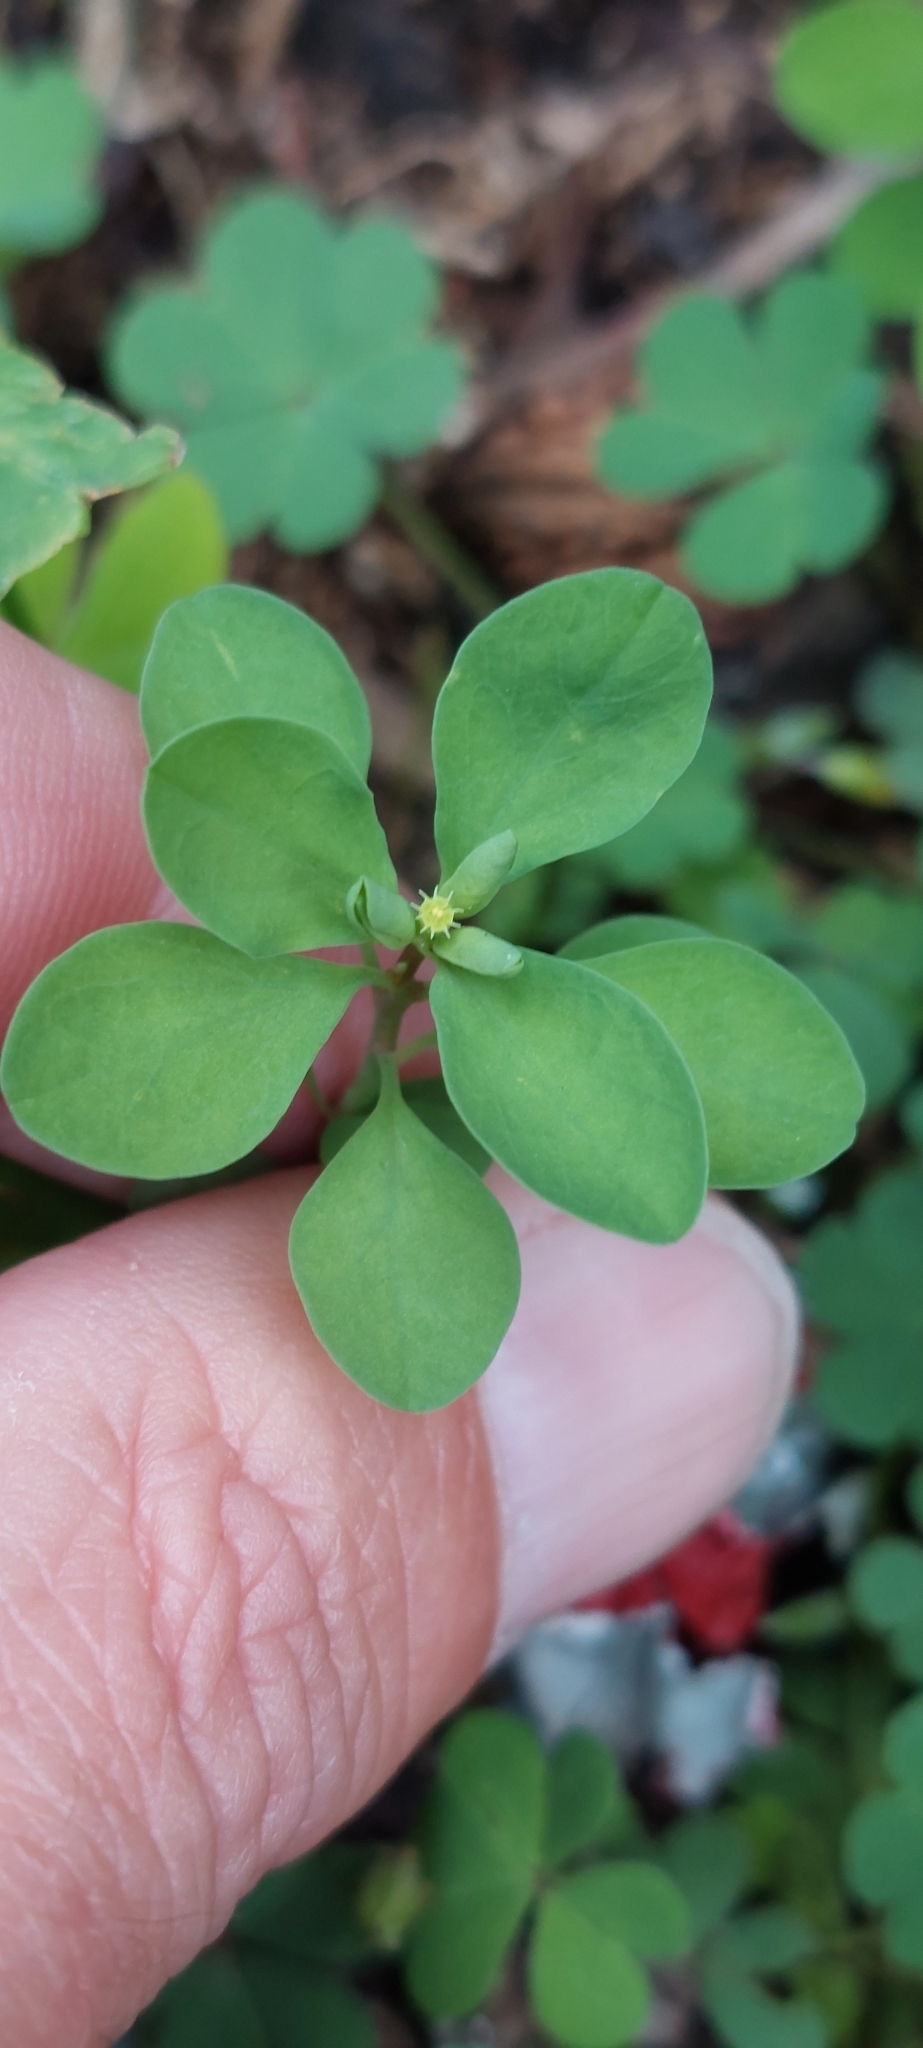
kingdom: Plantae
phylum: Tracheophyta
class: Magnoliopsida
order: Malpighiales
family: Euphorbiaceae
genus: Euphorbia
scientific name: Euphorbia peplus
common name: Petty spurge
